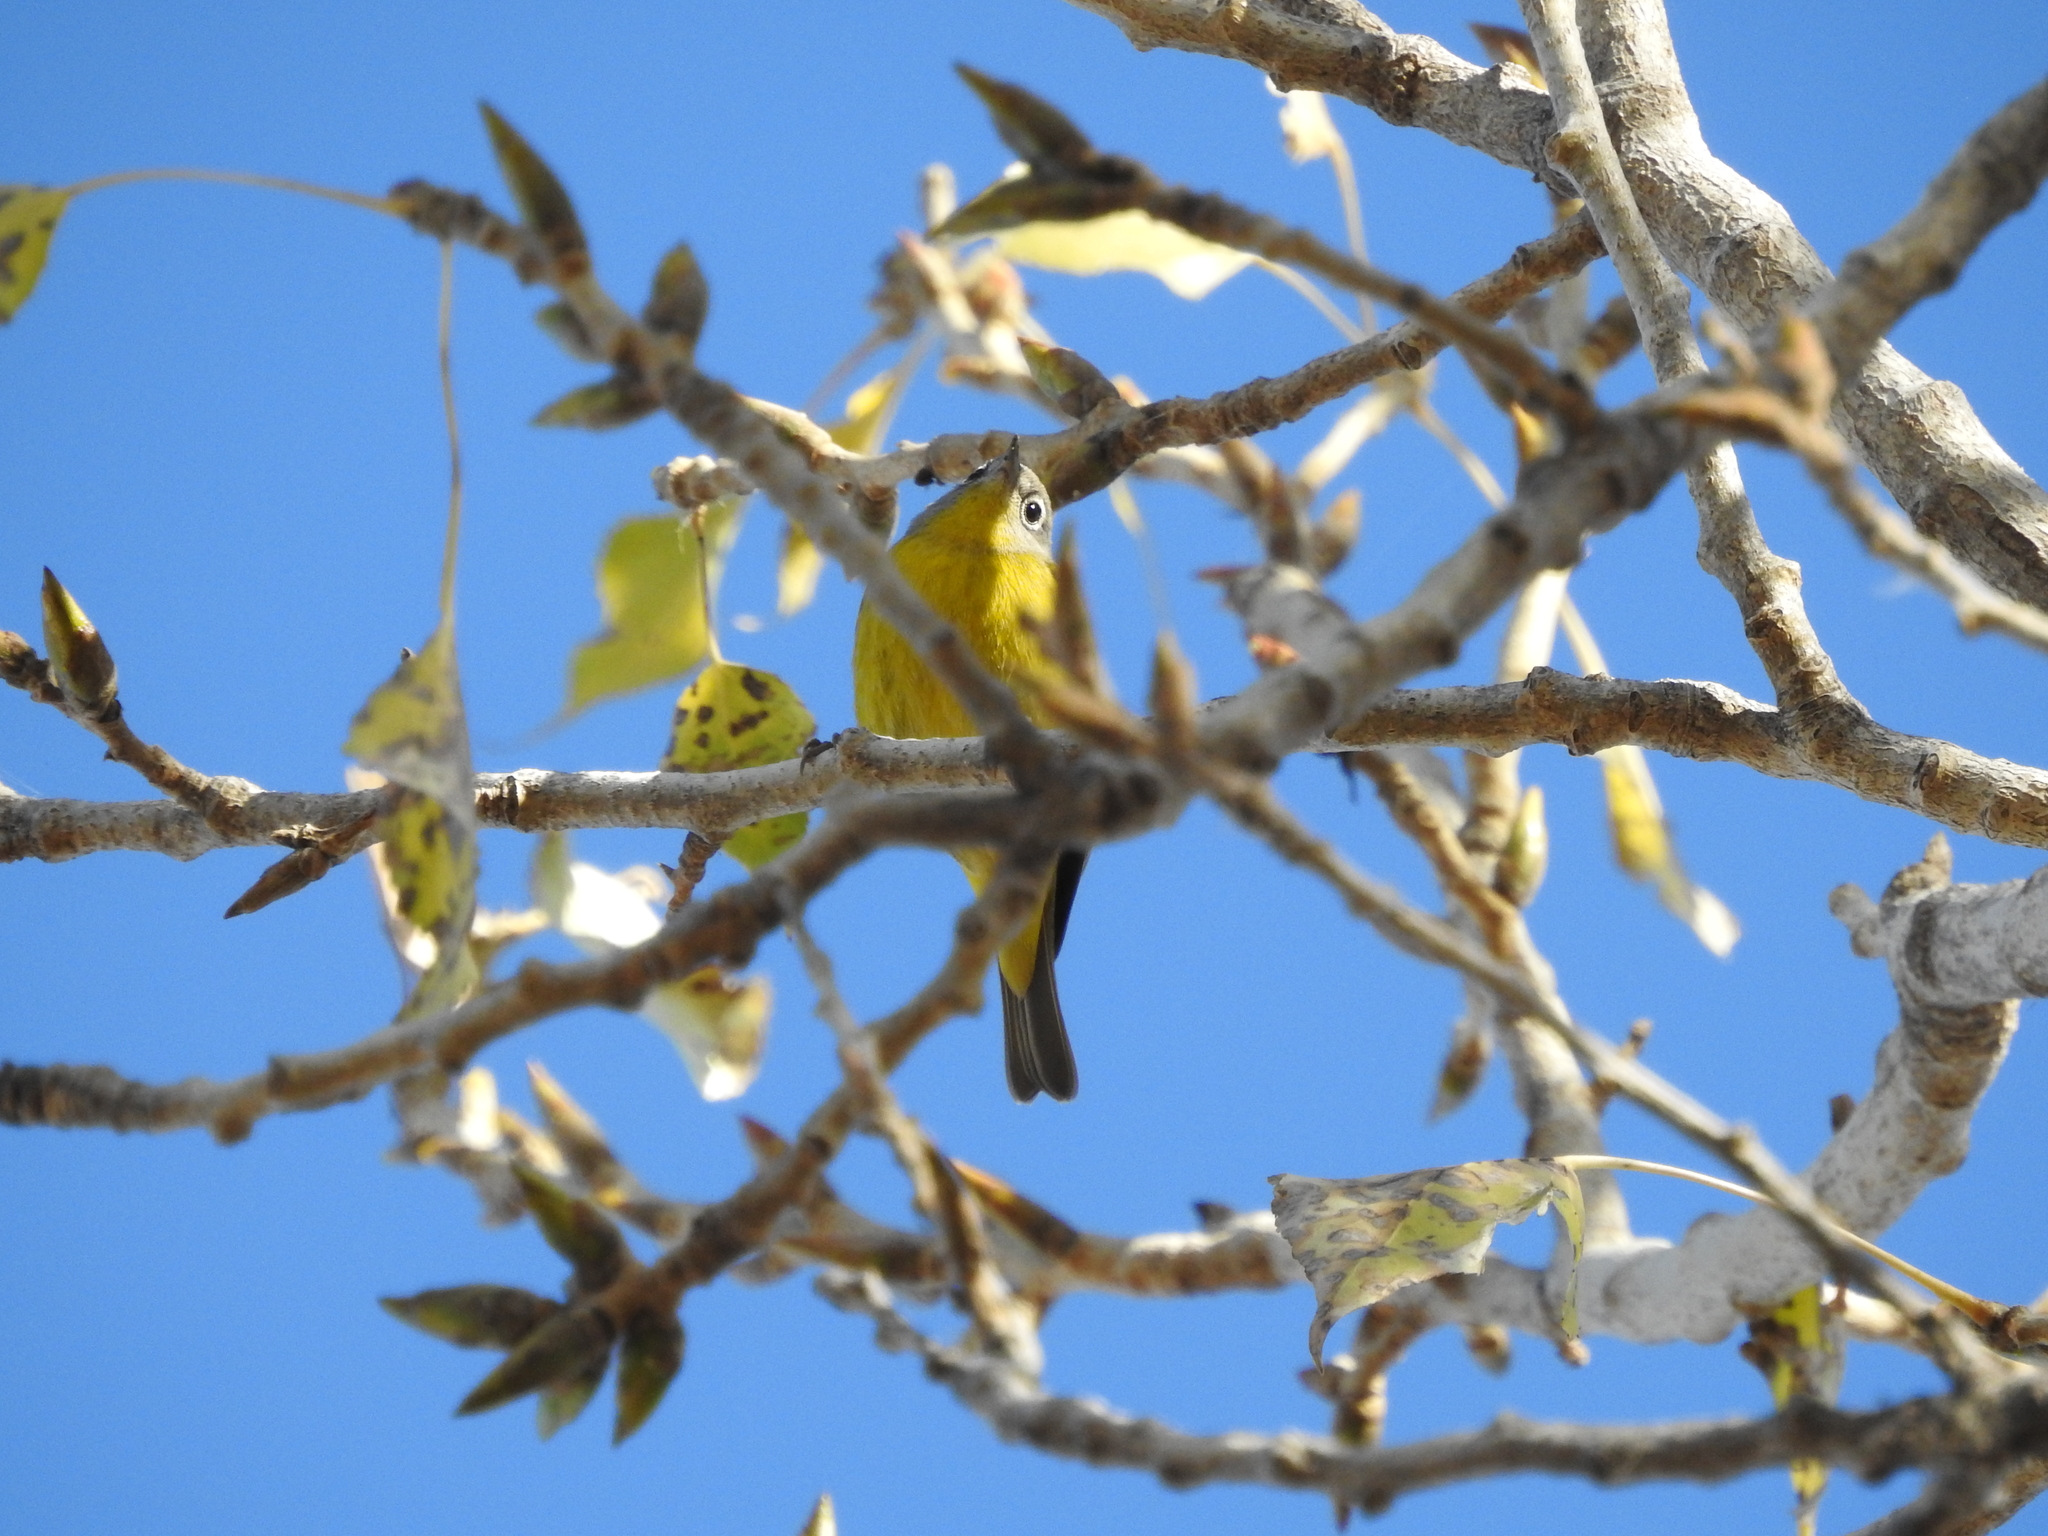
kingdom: Animalia
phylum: Chordata
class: Aves
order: Passeriformes
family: Parulidae
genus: Leiothlypis
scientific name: Leiothlypis ruficapilla
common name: Nashville warbler
